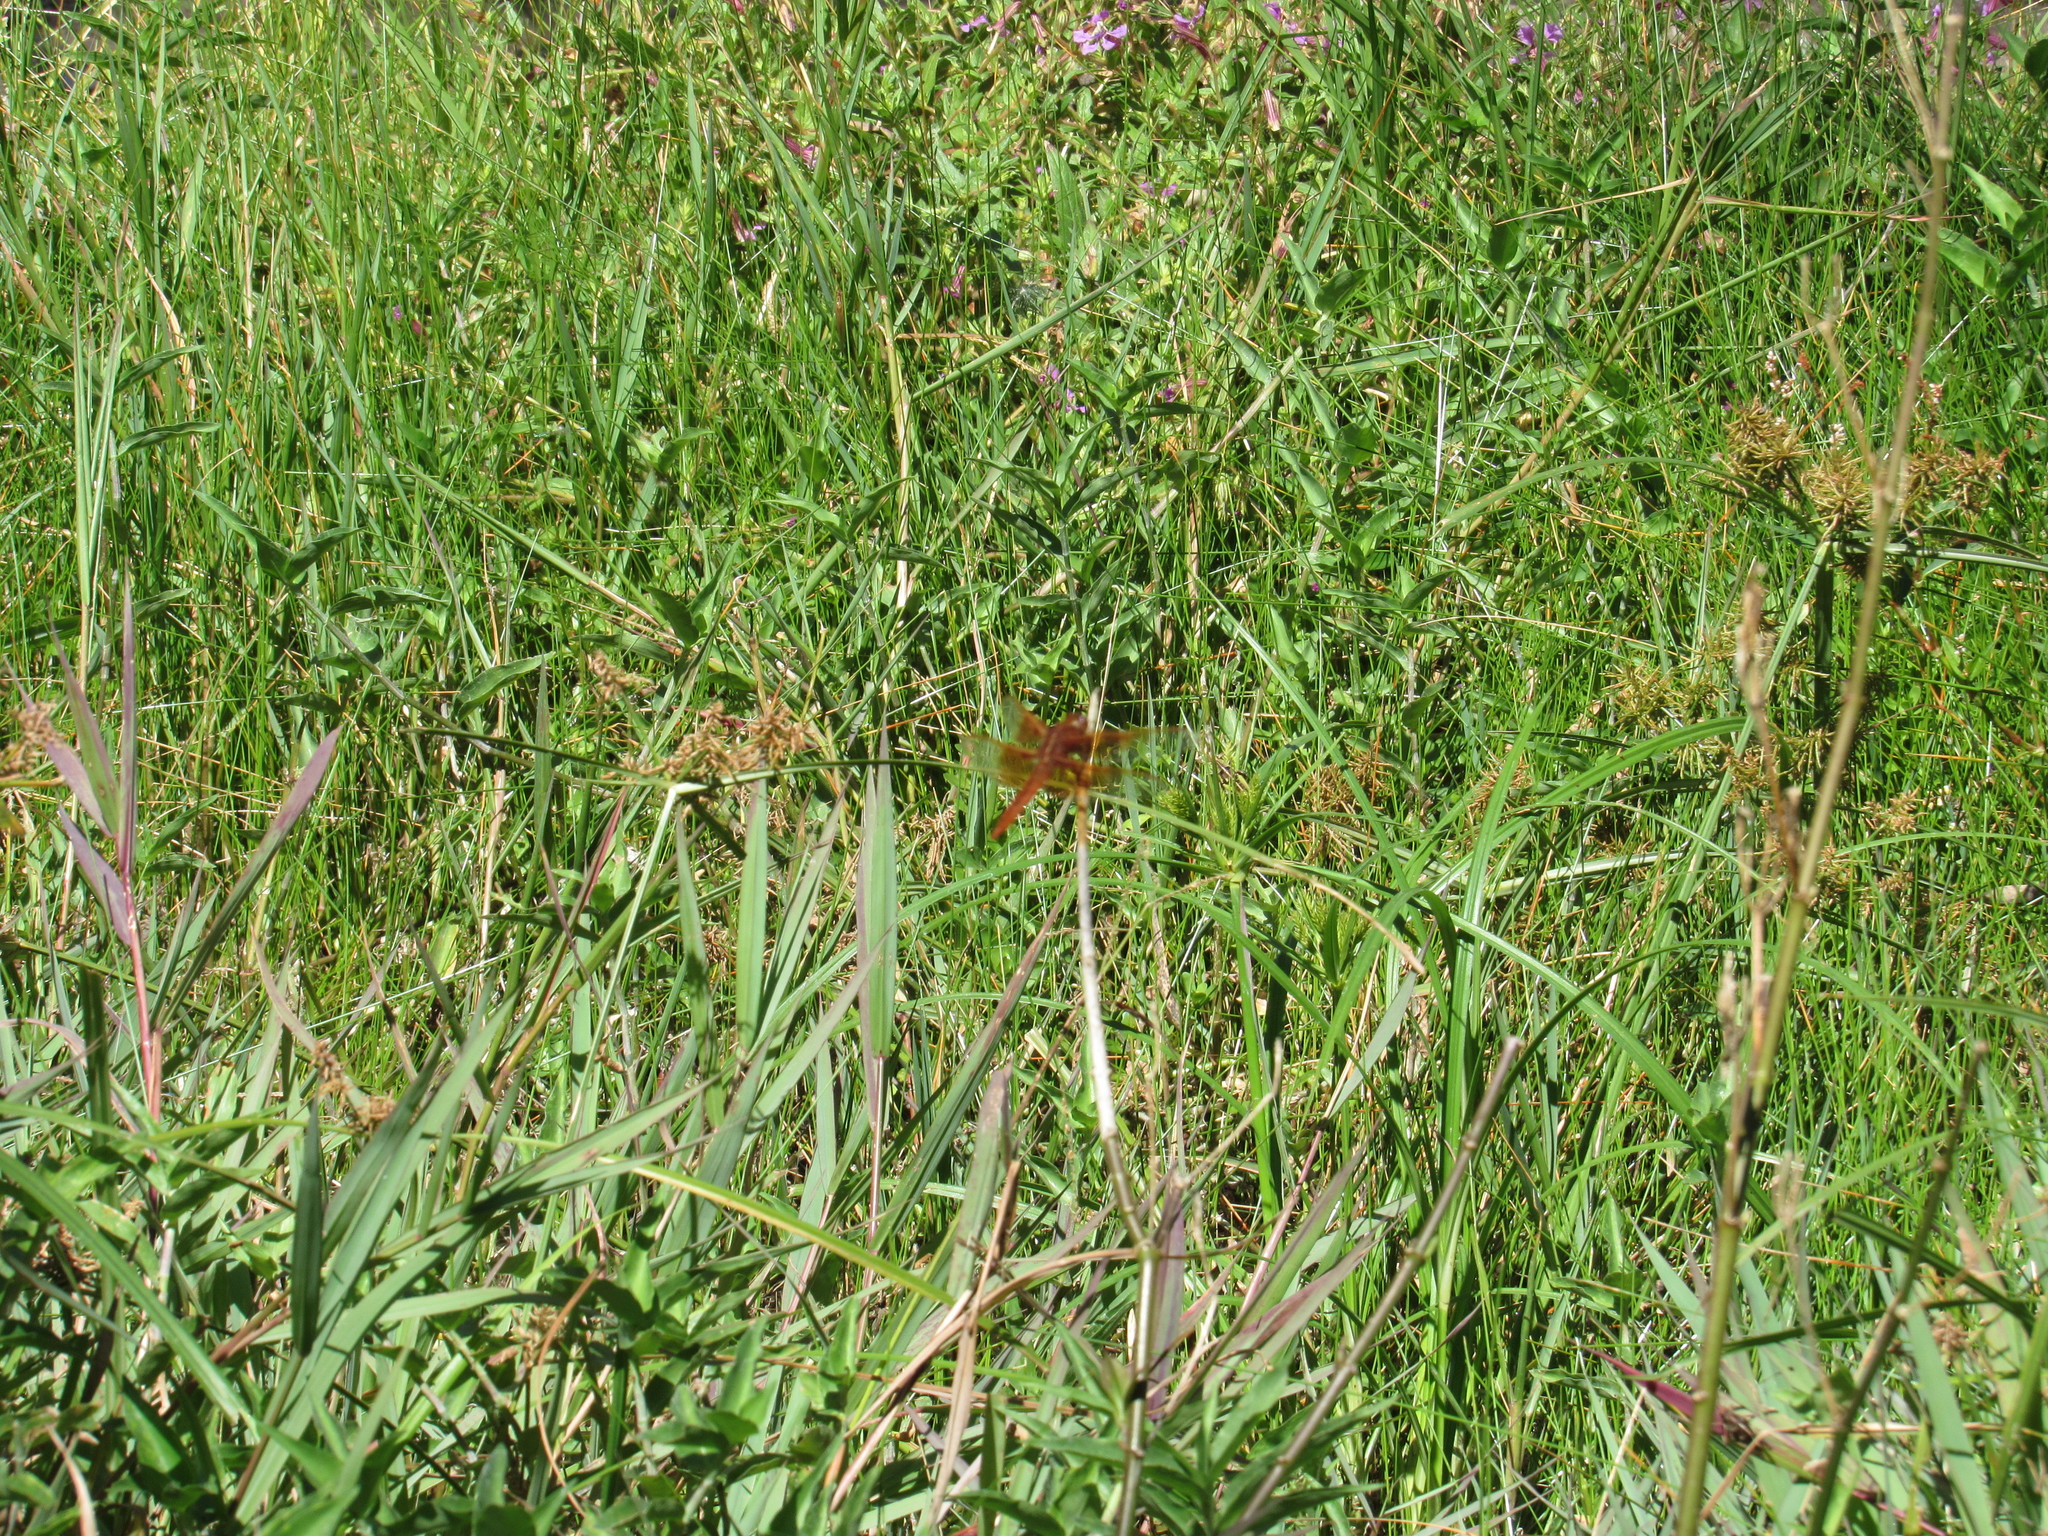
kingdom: Animalia
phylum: Arthropoda
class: Insecta
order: Odonata
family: Libellulidae
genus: Libellula
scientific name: Libellula saturata
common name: Flame skimmer
